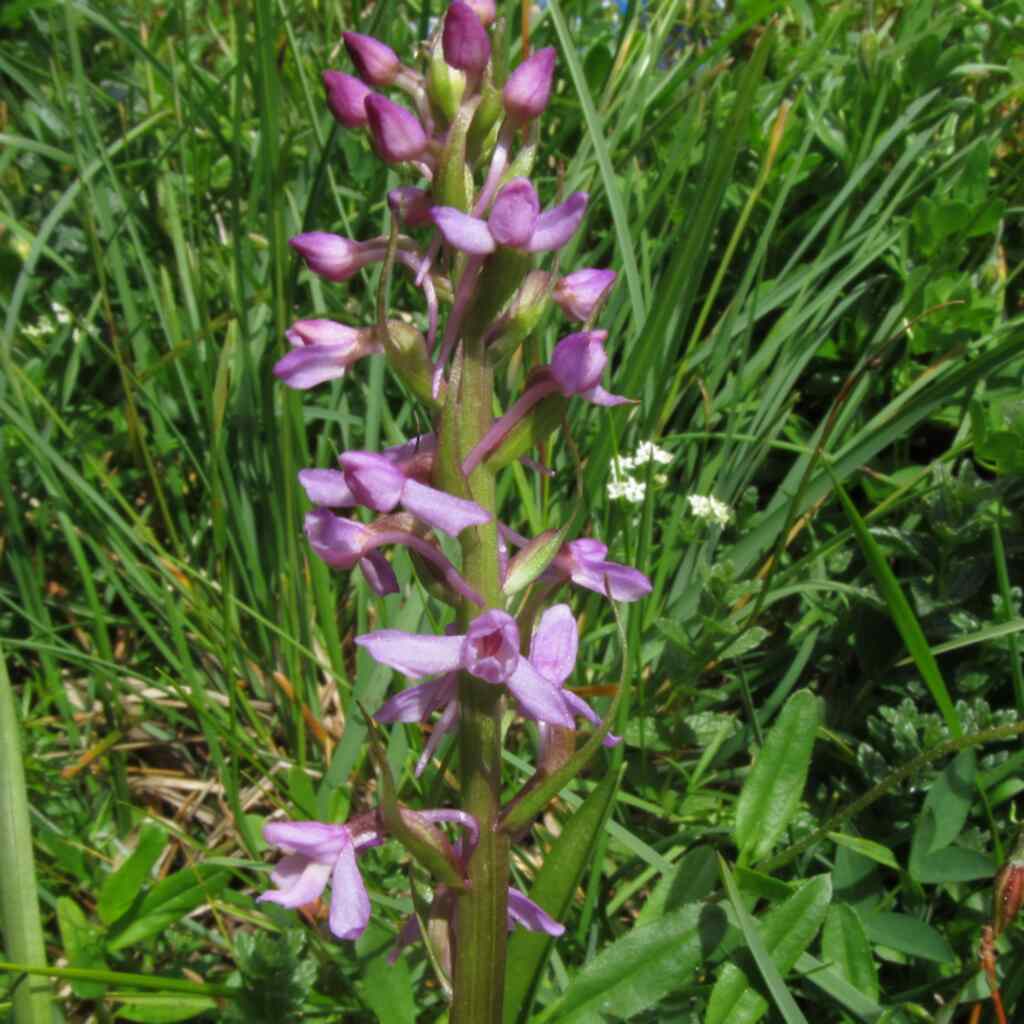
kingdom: Plantae
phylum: Tracheophyta
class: Liliopsida
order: Asparagales
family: Orchidaceae
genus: Gymnadenia
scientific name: Gymnadenia conopsea
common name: Fragrant orchid
